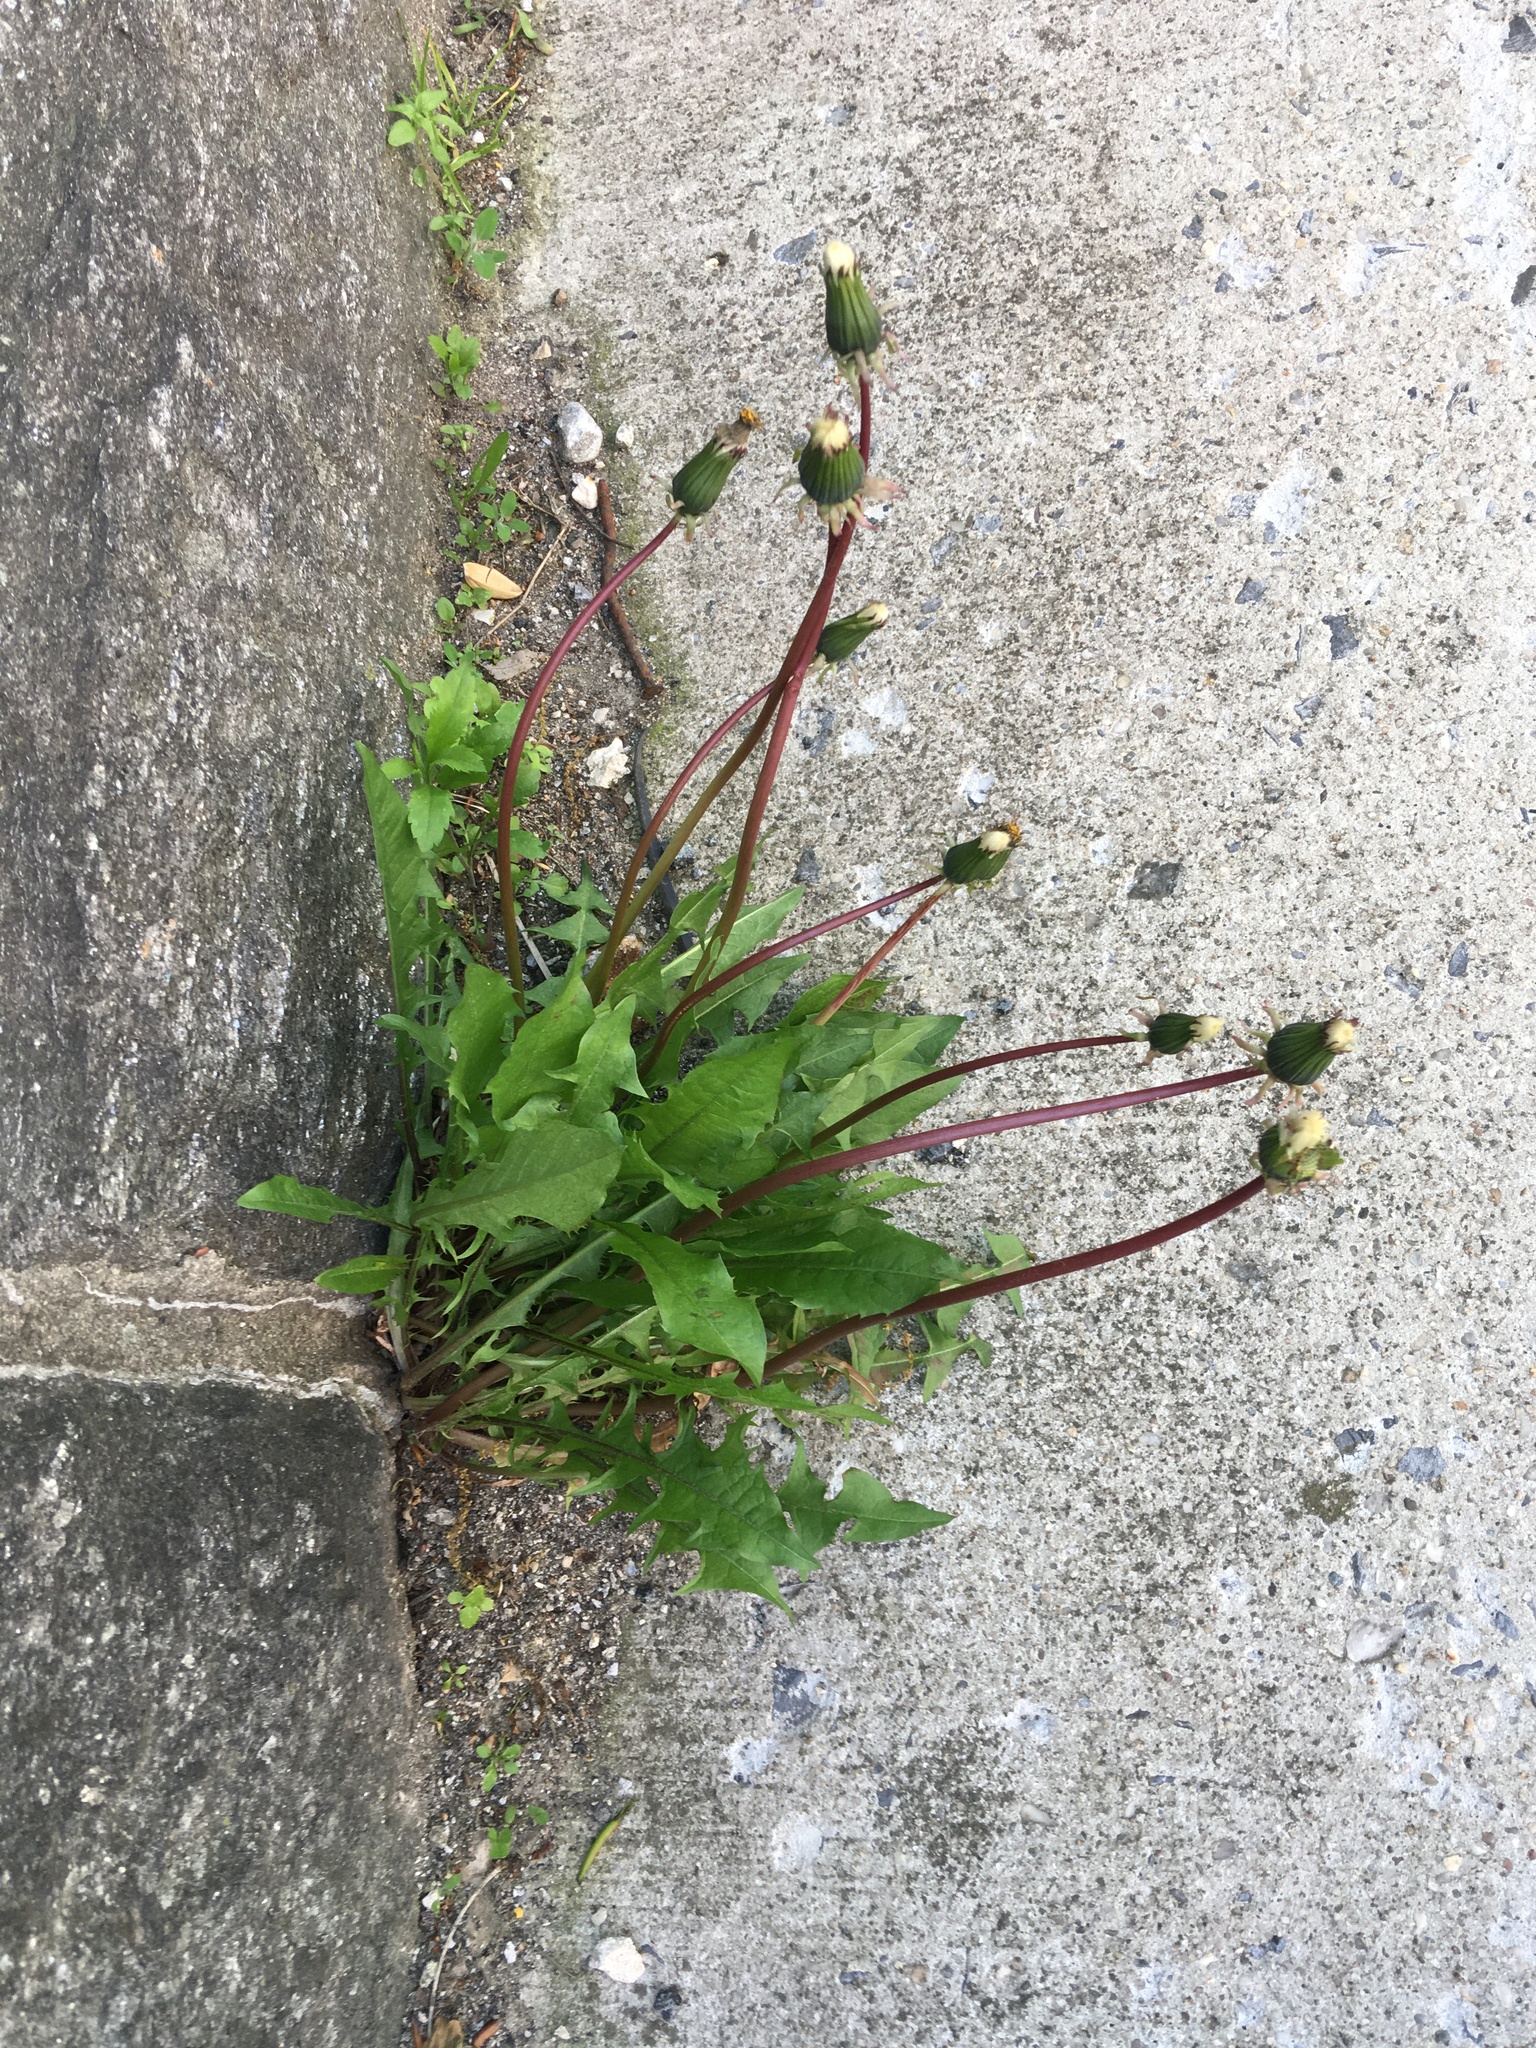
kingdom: Plantae
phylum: Tracheophyta
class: Magnoliopsida
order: Asterales
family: Asteraceae
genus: Taraxacum
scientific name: Taraxacum officinale
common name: Common dandelion
